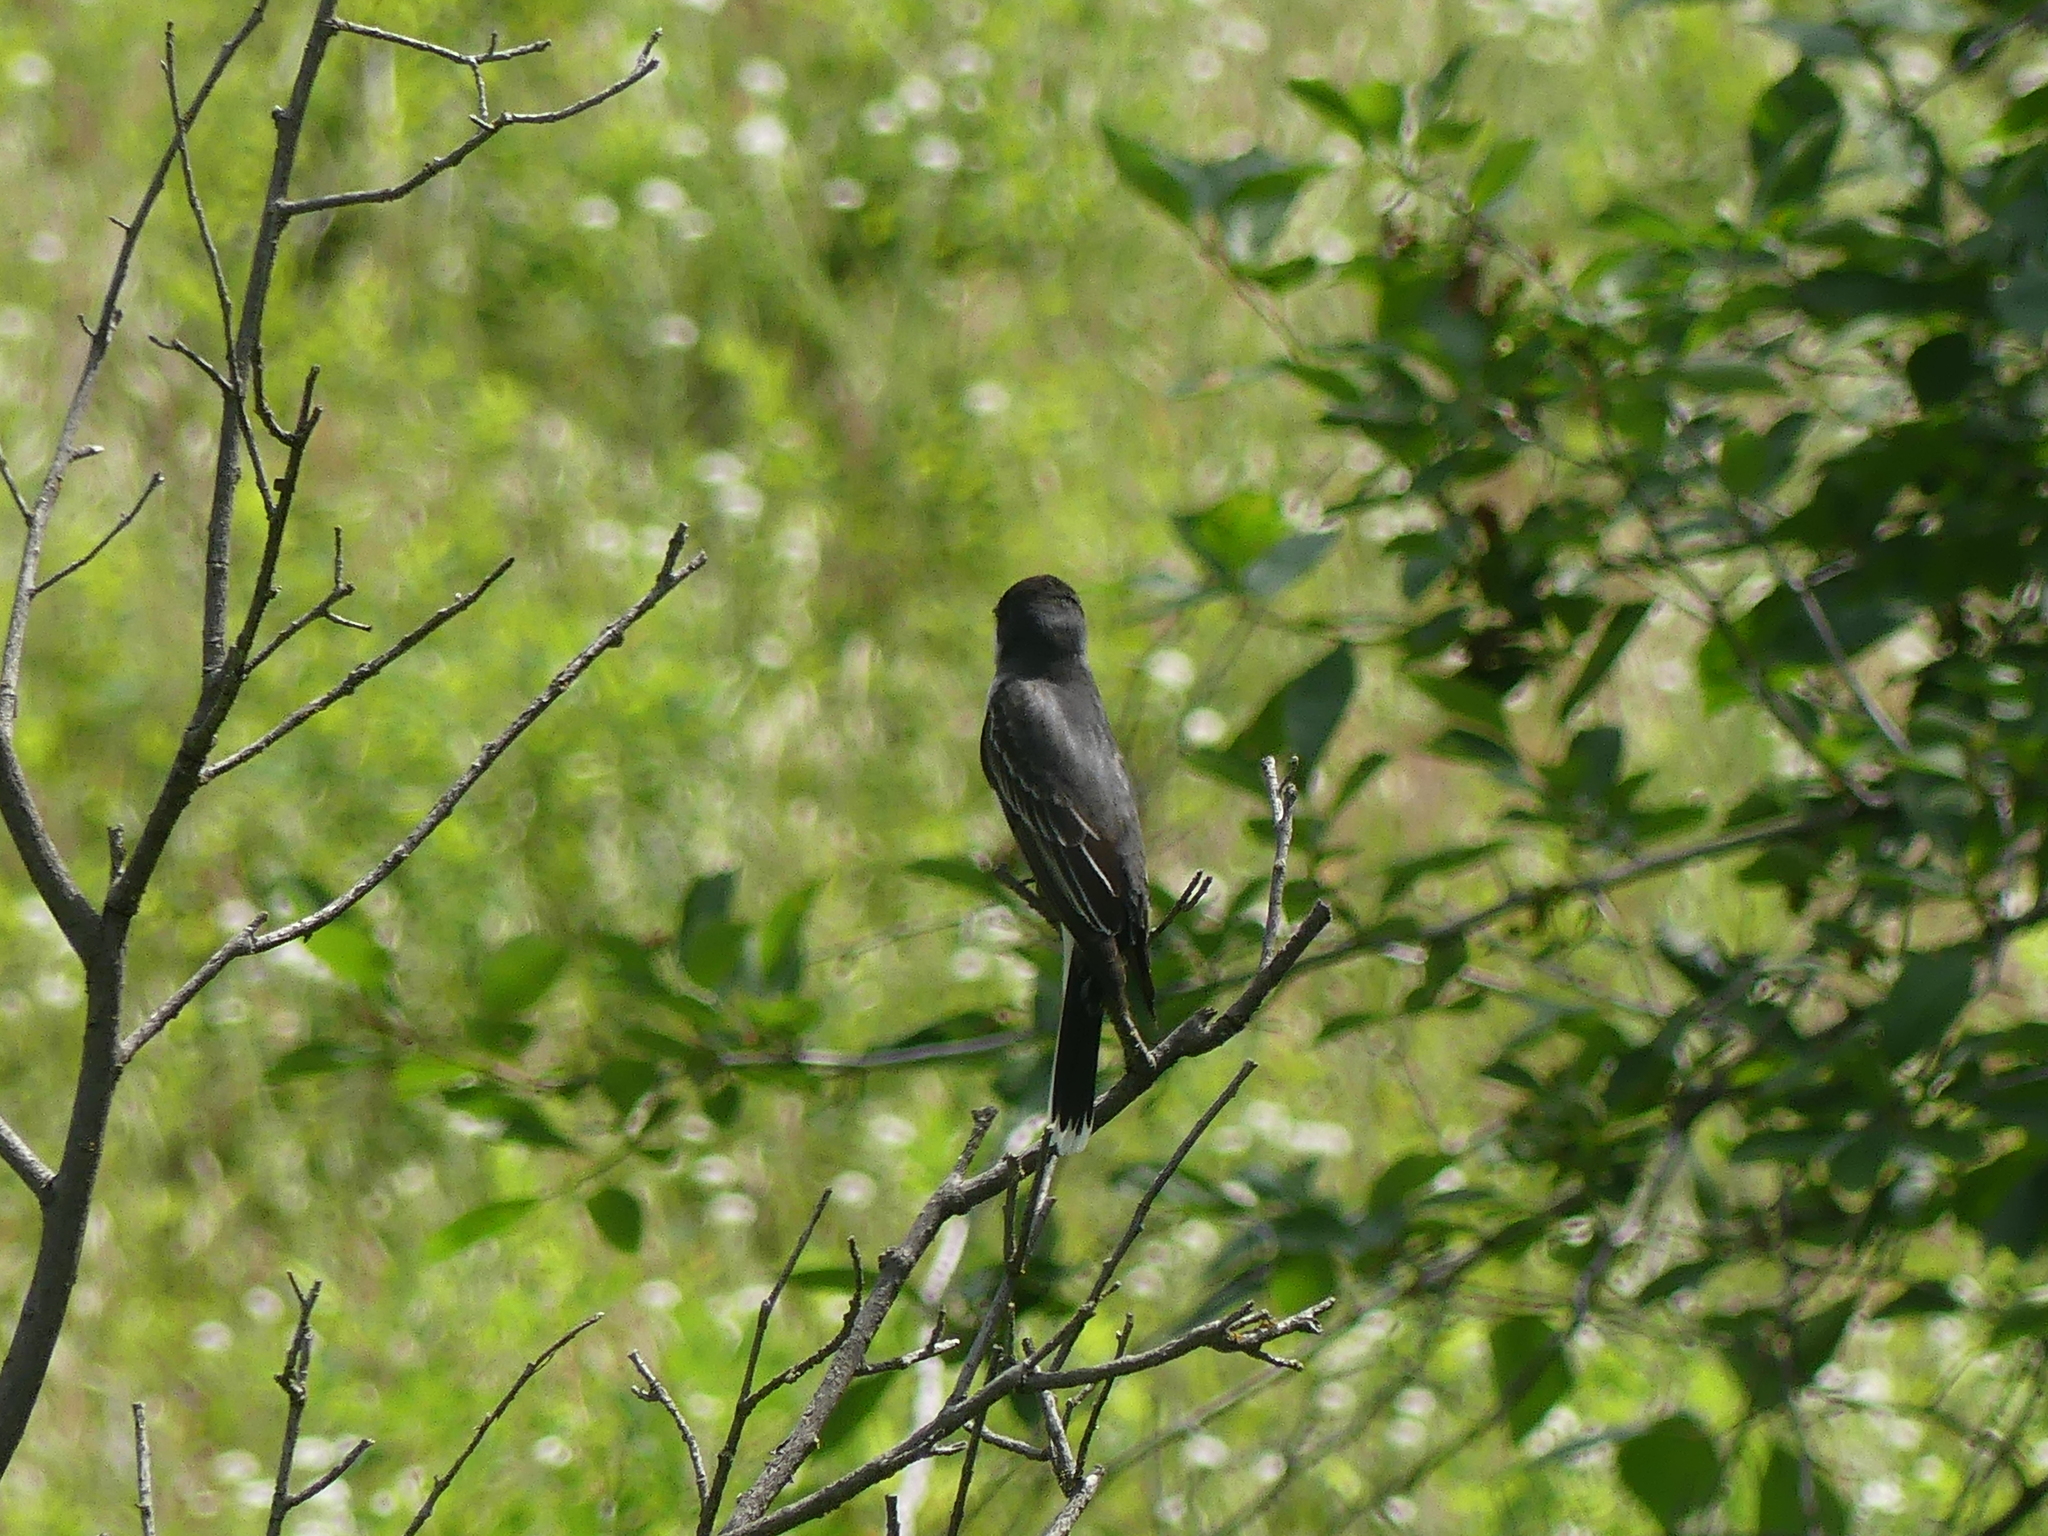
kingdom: Animalia
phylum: Chordata
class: Aves
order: Passeriformes
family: Tyrannidae
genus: Tyrannus
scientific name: Tyrannus tyrannus
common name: Eastern kingbird
